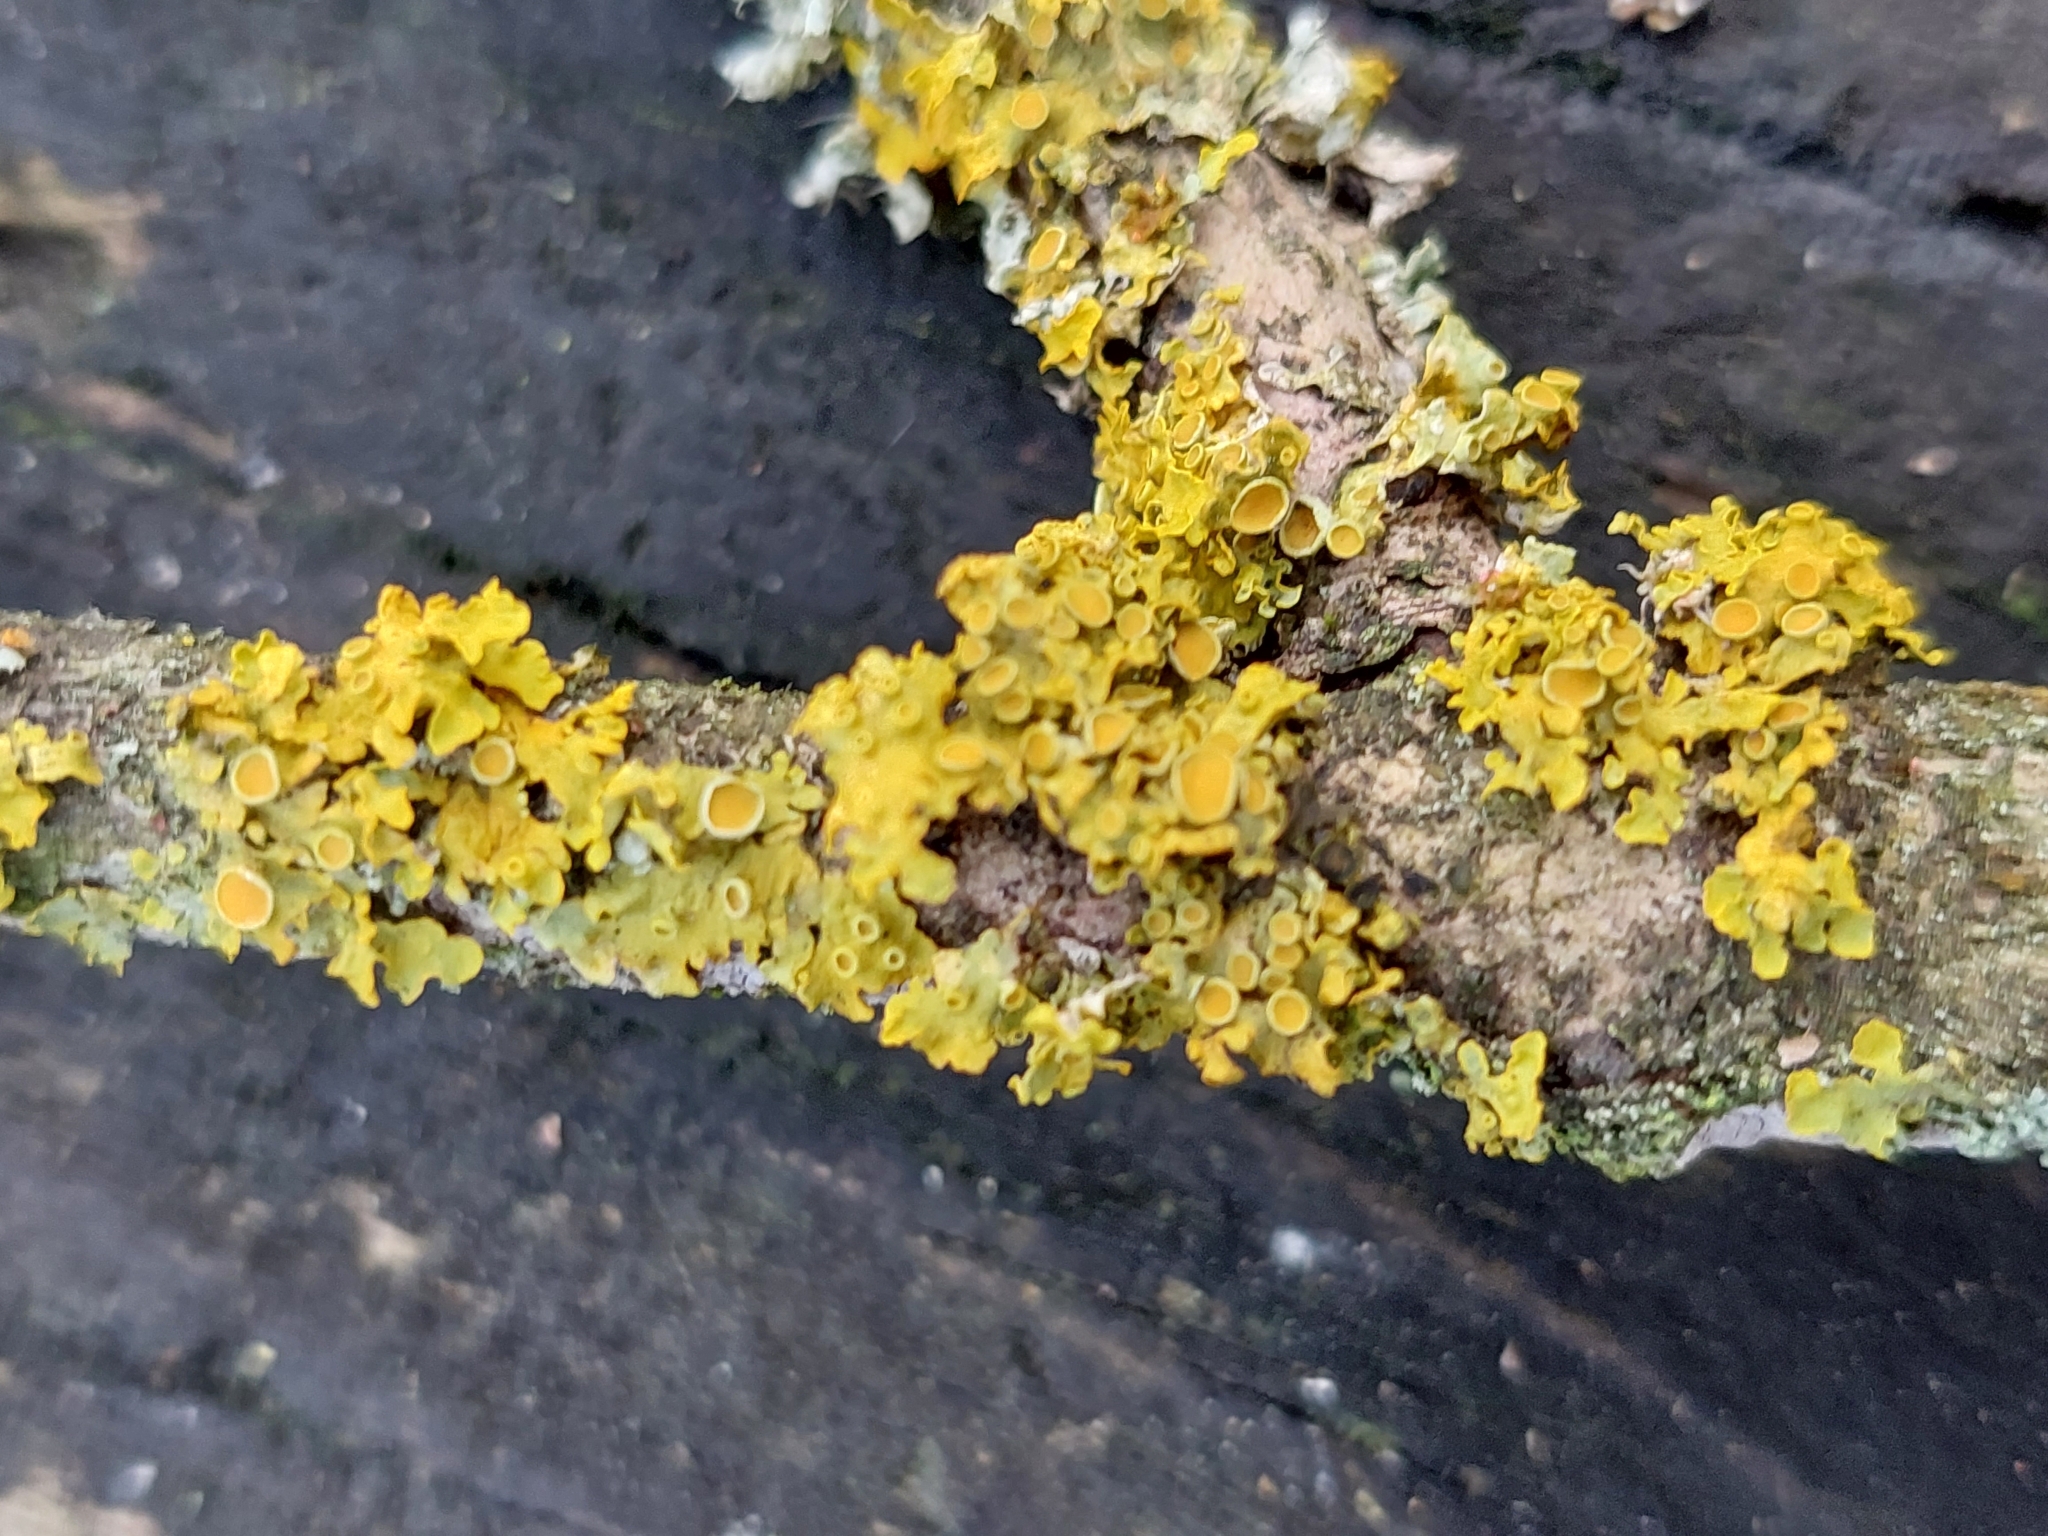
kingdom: Fungi
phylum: Ascomycota
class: Lecanoromycetes
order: Teloschistales
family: Teloschistaceae
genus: Xanthoria
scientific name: Xanthoria parietina
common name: Common orange lichen
